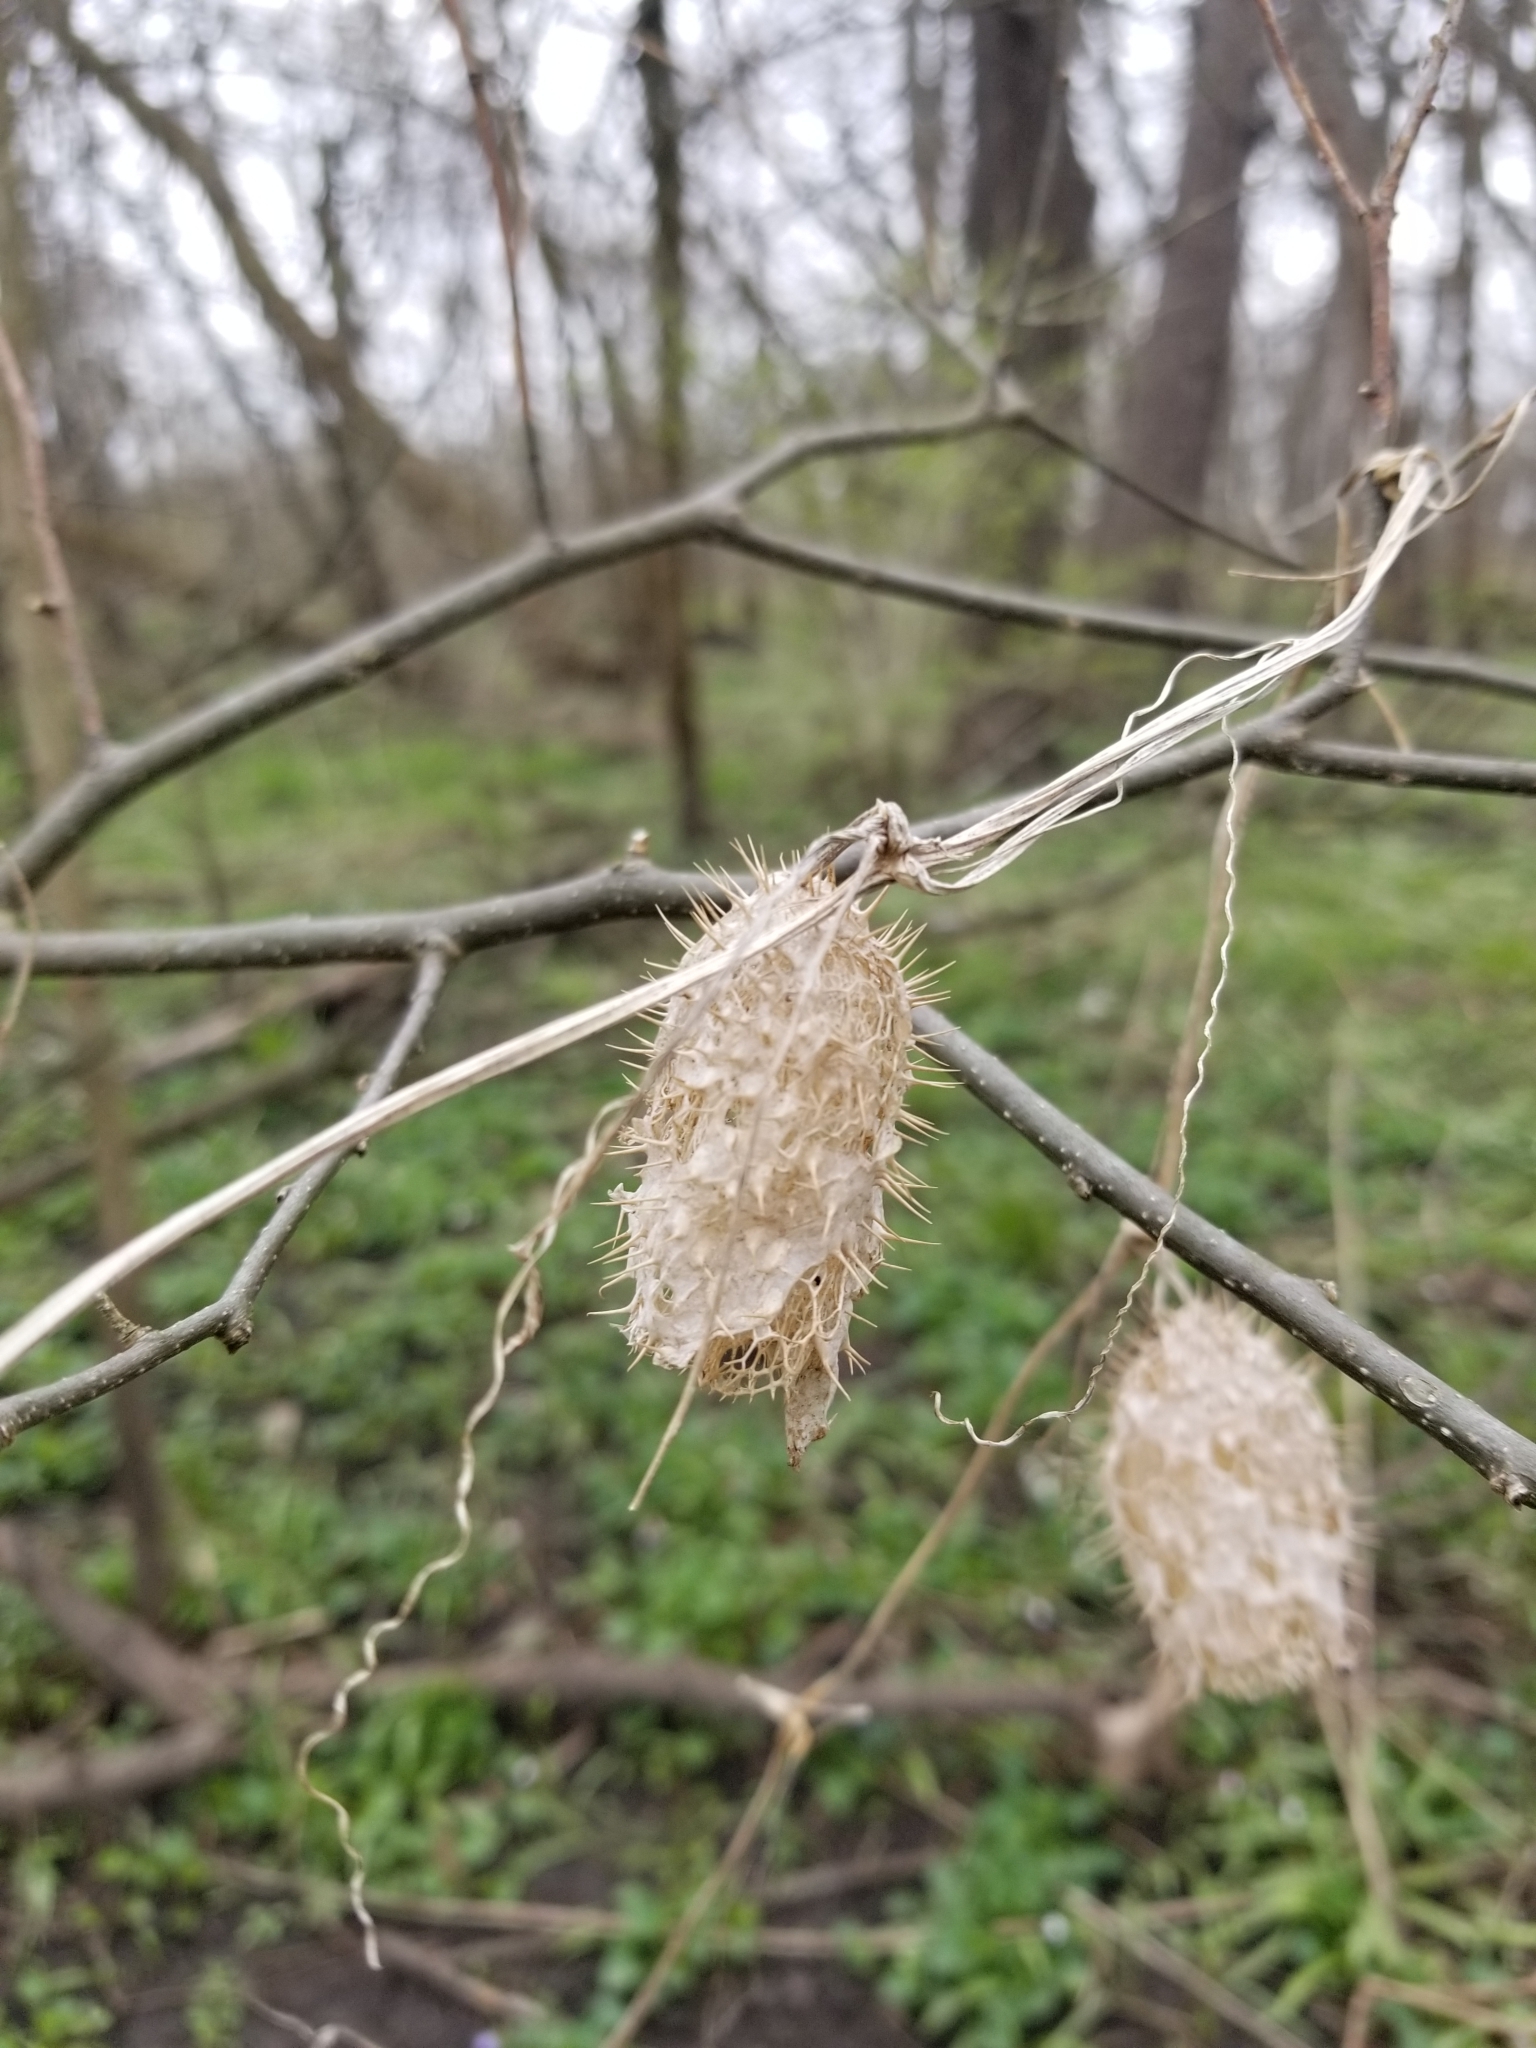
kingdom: Plantae
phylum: Tracheophyta
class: Magnoliopsida
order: Cucurbitales
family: Cucurbitaceae
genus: Echinocystis
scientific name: Echinocystis lobata
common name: Wild cucumber
